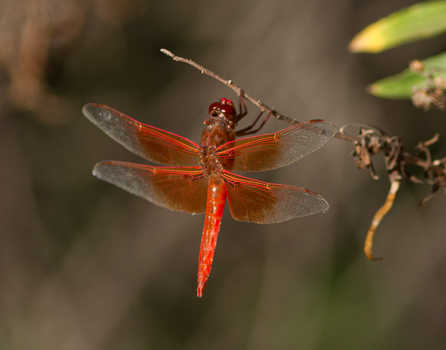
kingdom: Animalia
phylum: Arthropoda
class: Insecta
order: Odonata
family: Libellulidae
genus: Libellula
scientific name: Libellula saturata
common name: Flame skimmer
